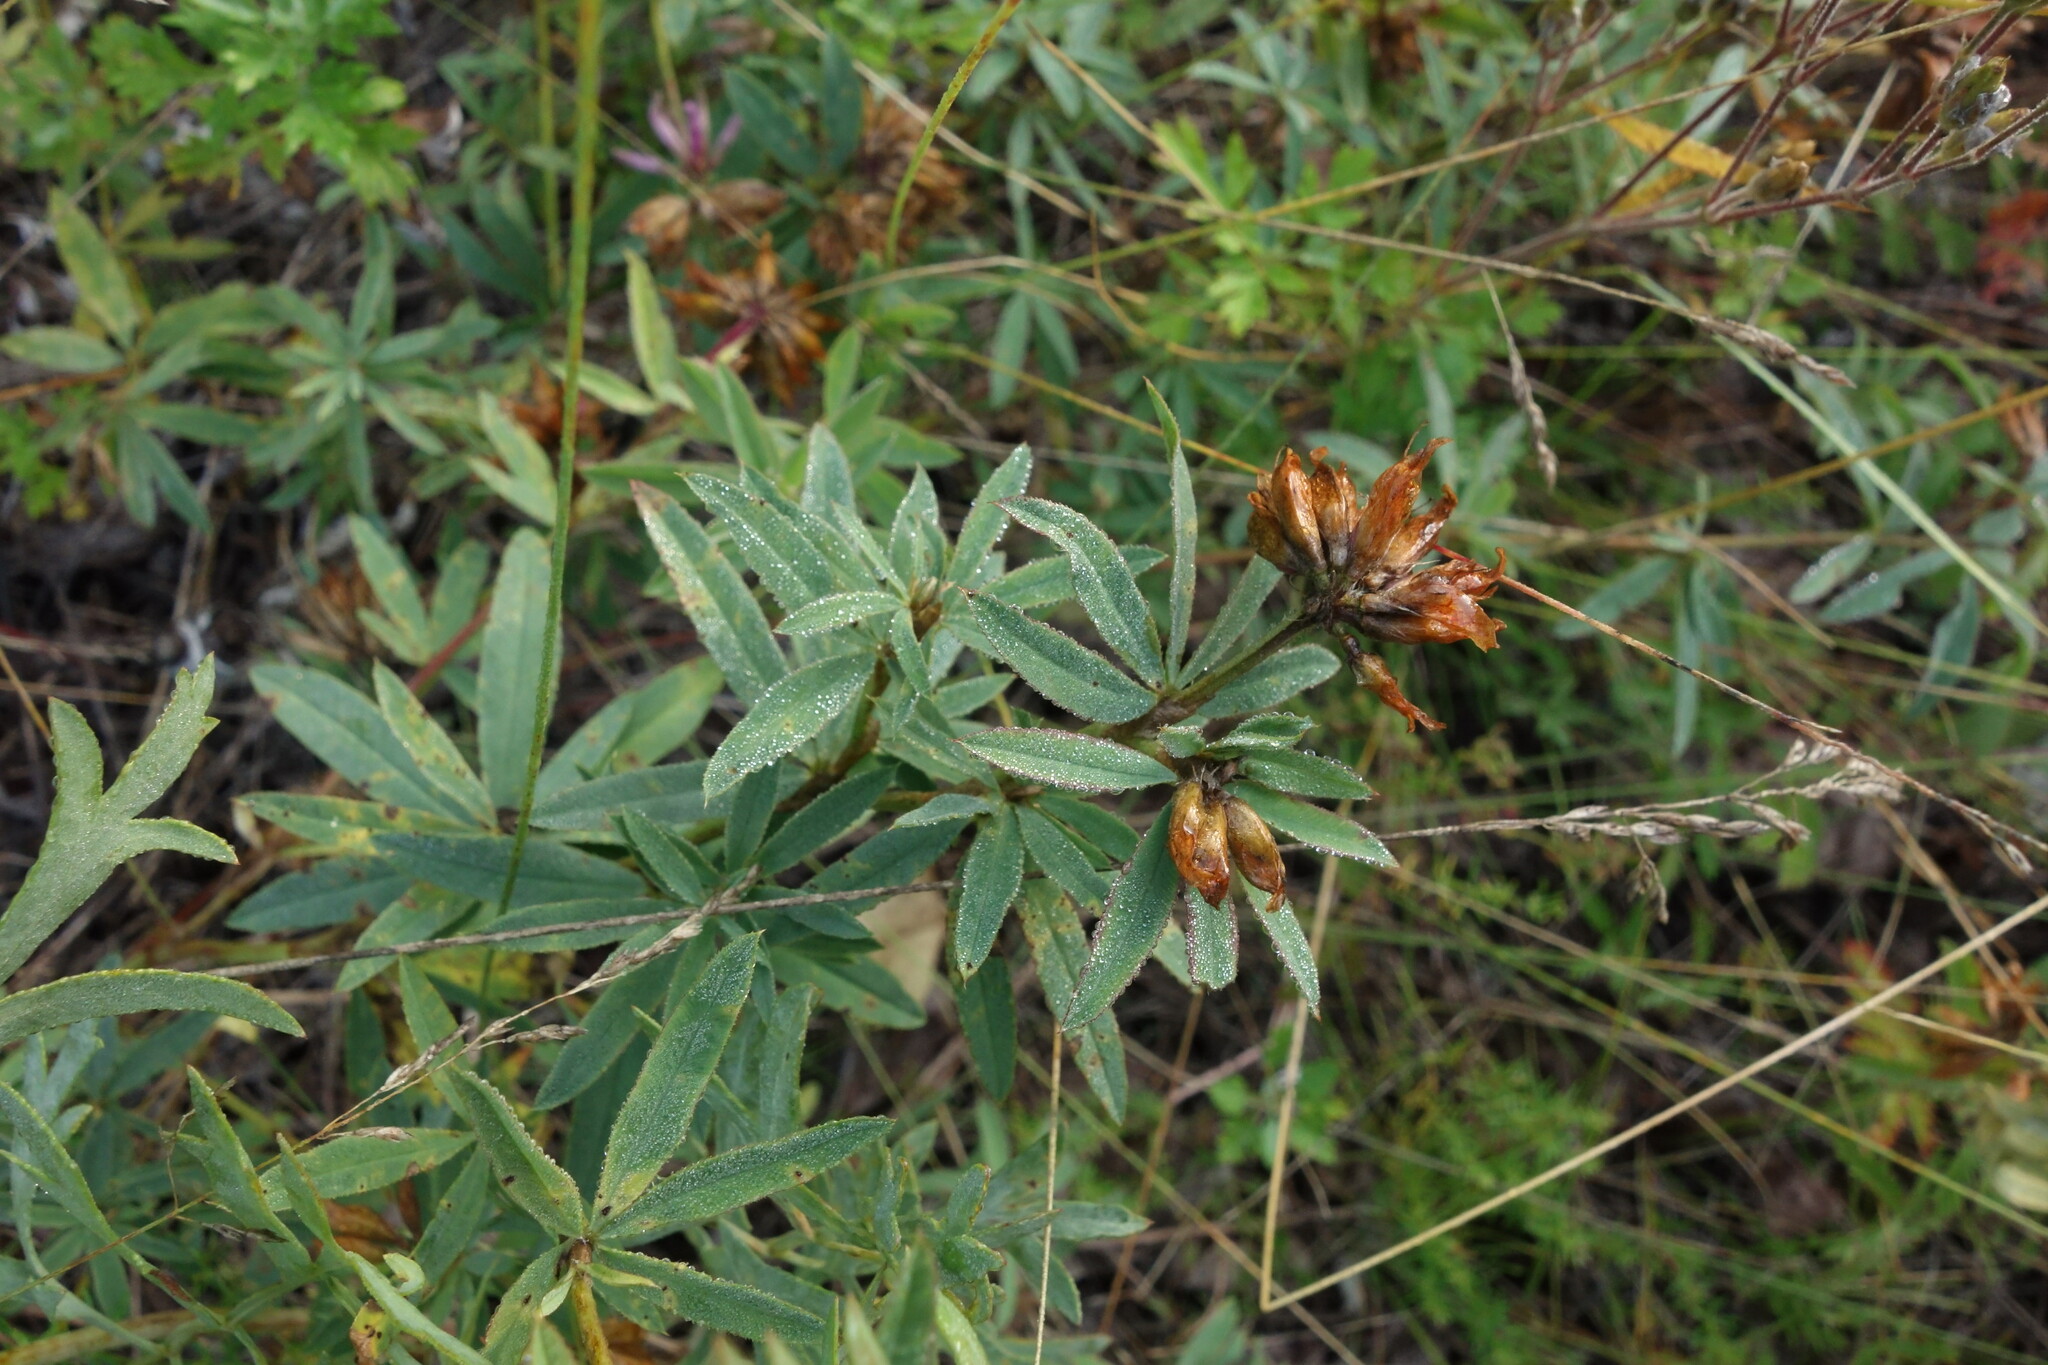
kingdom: Plantae
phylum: Tracheophyta
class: Magnoliopsida
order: Fabales
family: Fabaceae
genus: Trifolium
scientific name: Trifolium lupinaster
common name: Lupine clover
